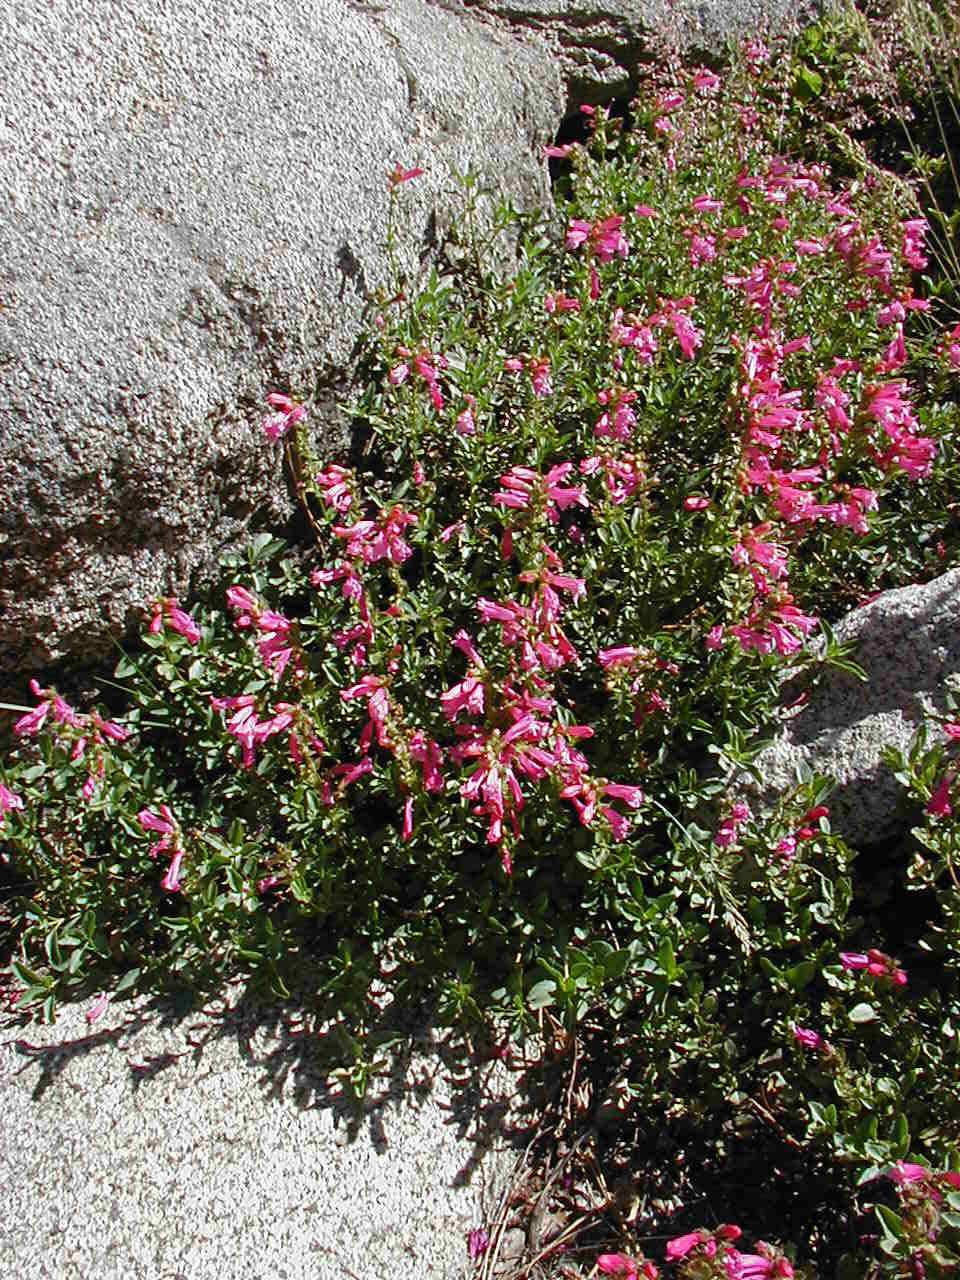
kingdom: Plantae
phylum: Tracheophyta
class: Magnoliopsida
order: Lamiales
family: Plantaginaceae
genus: Penstemon
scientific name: Penstemon newberryi
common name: Mountain-pride
